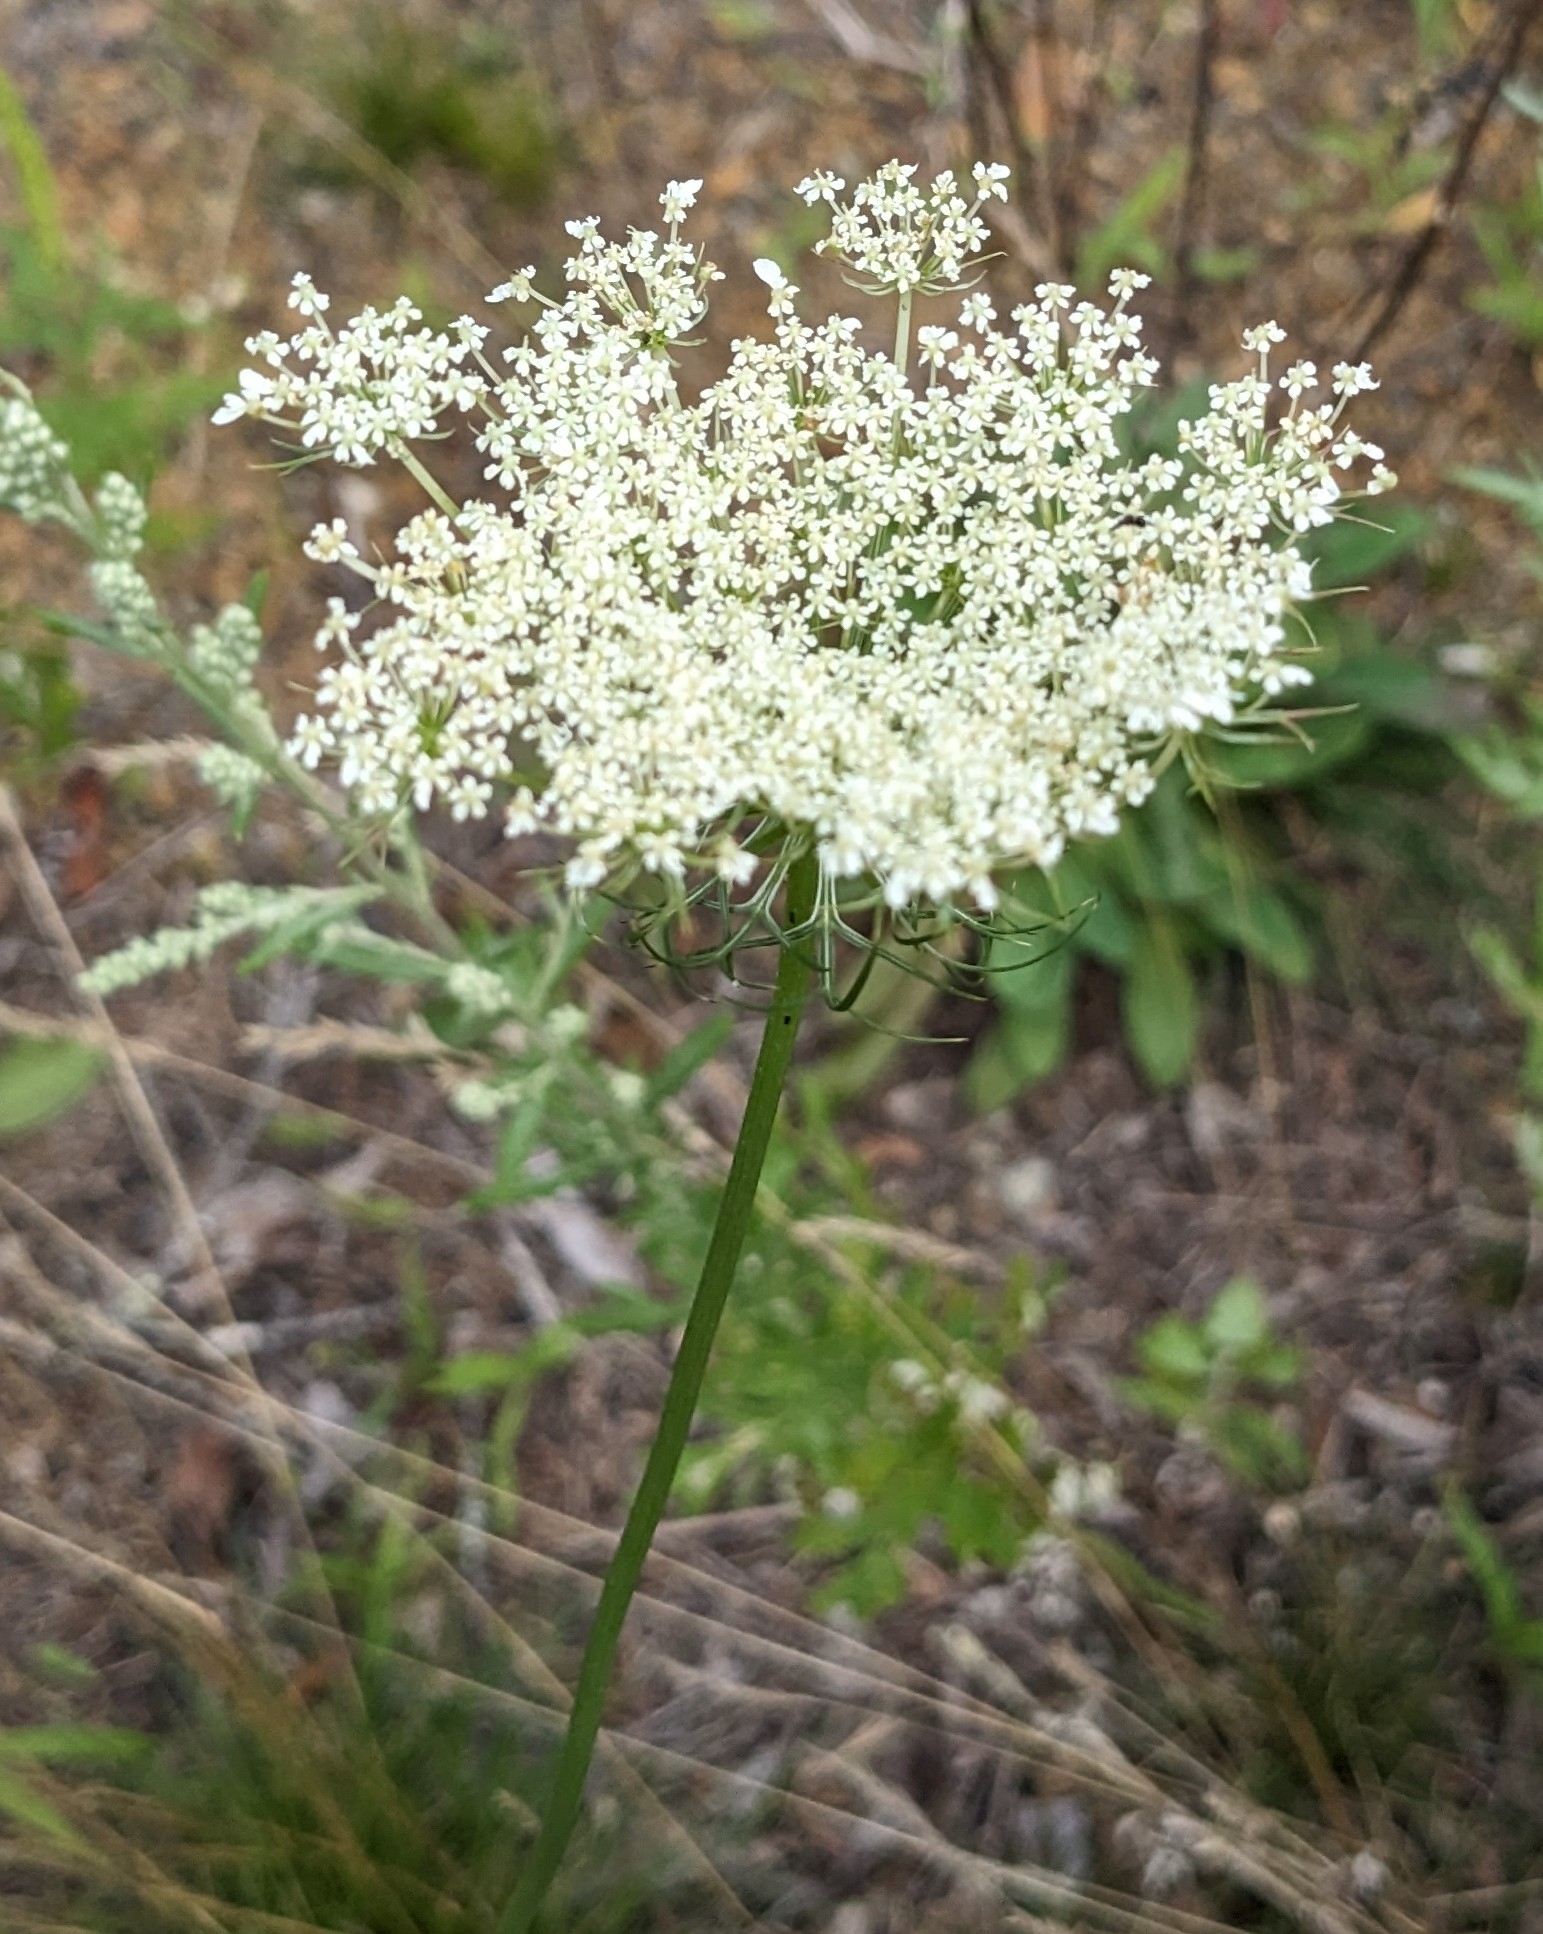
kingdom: Plantae
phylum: Tracheophyta
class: Magnoliopsida
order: Apiales
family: Apiaceae
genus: Daucus
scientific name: Daucus carota
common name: Wild carrot
